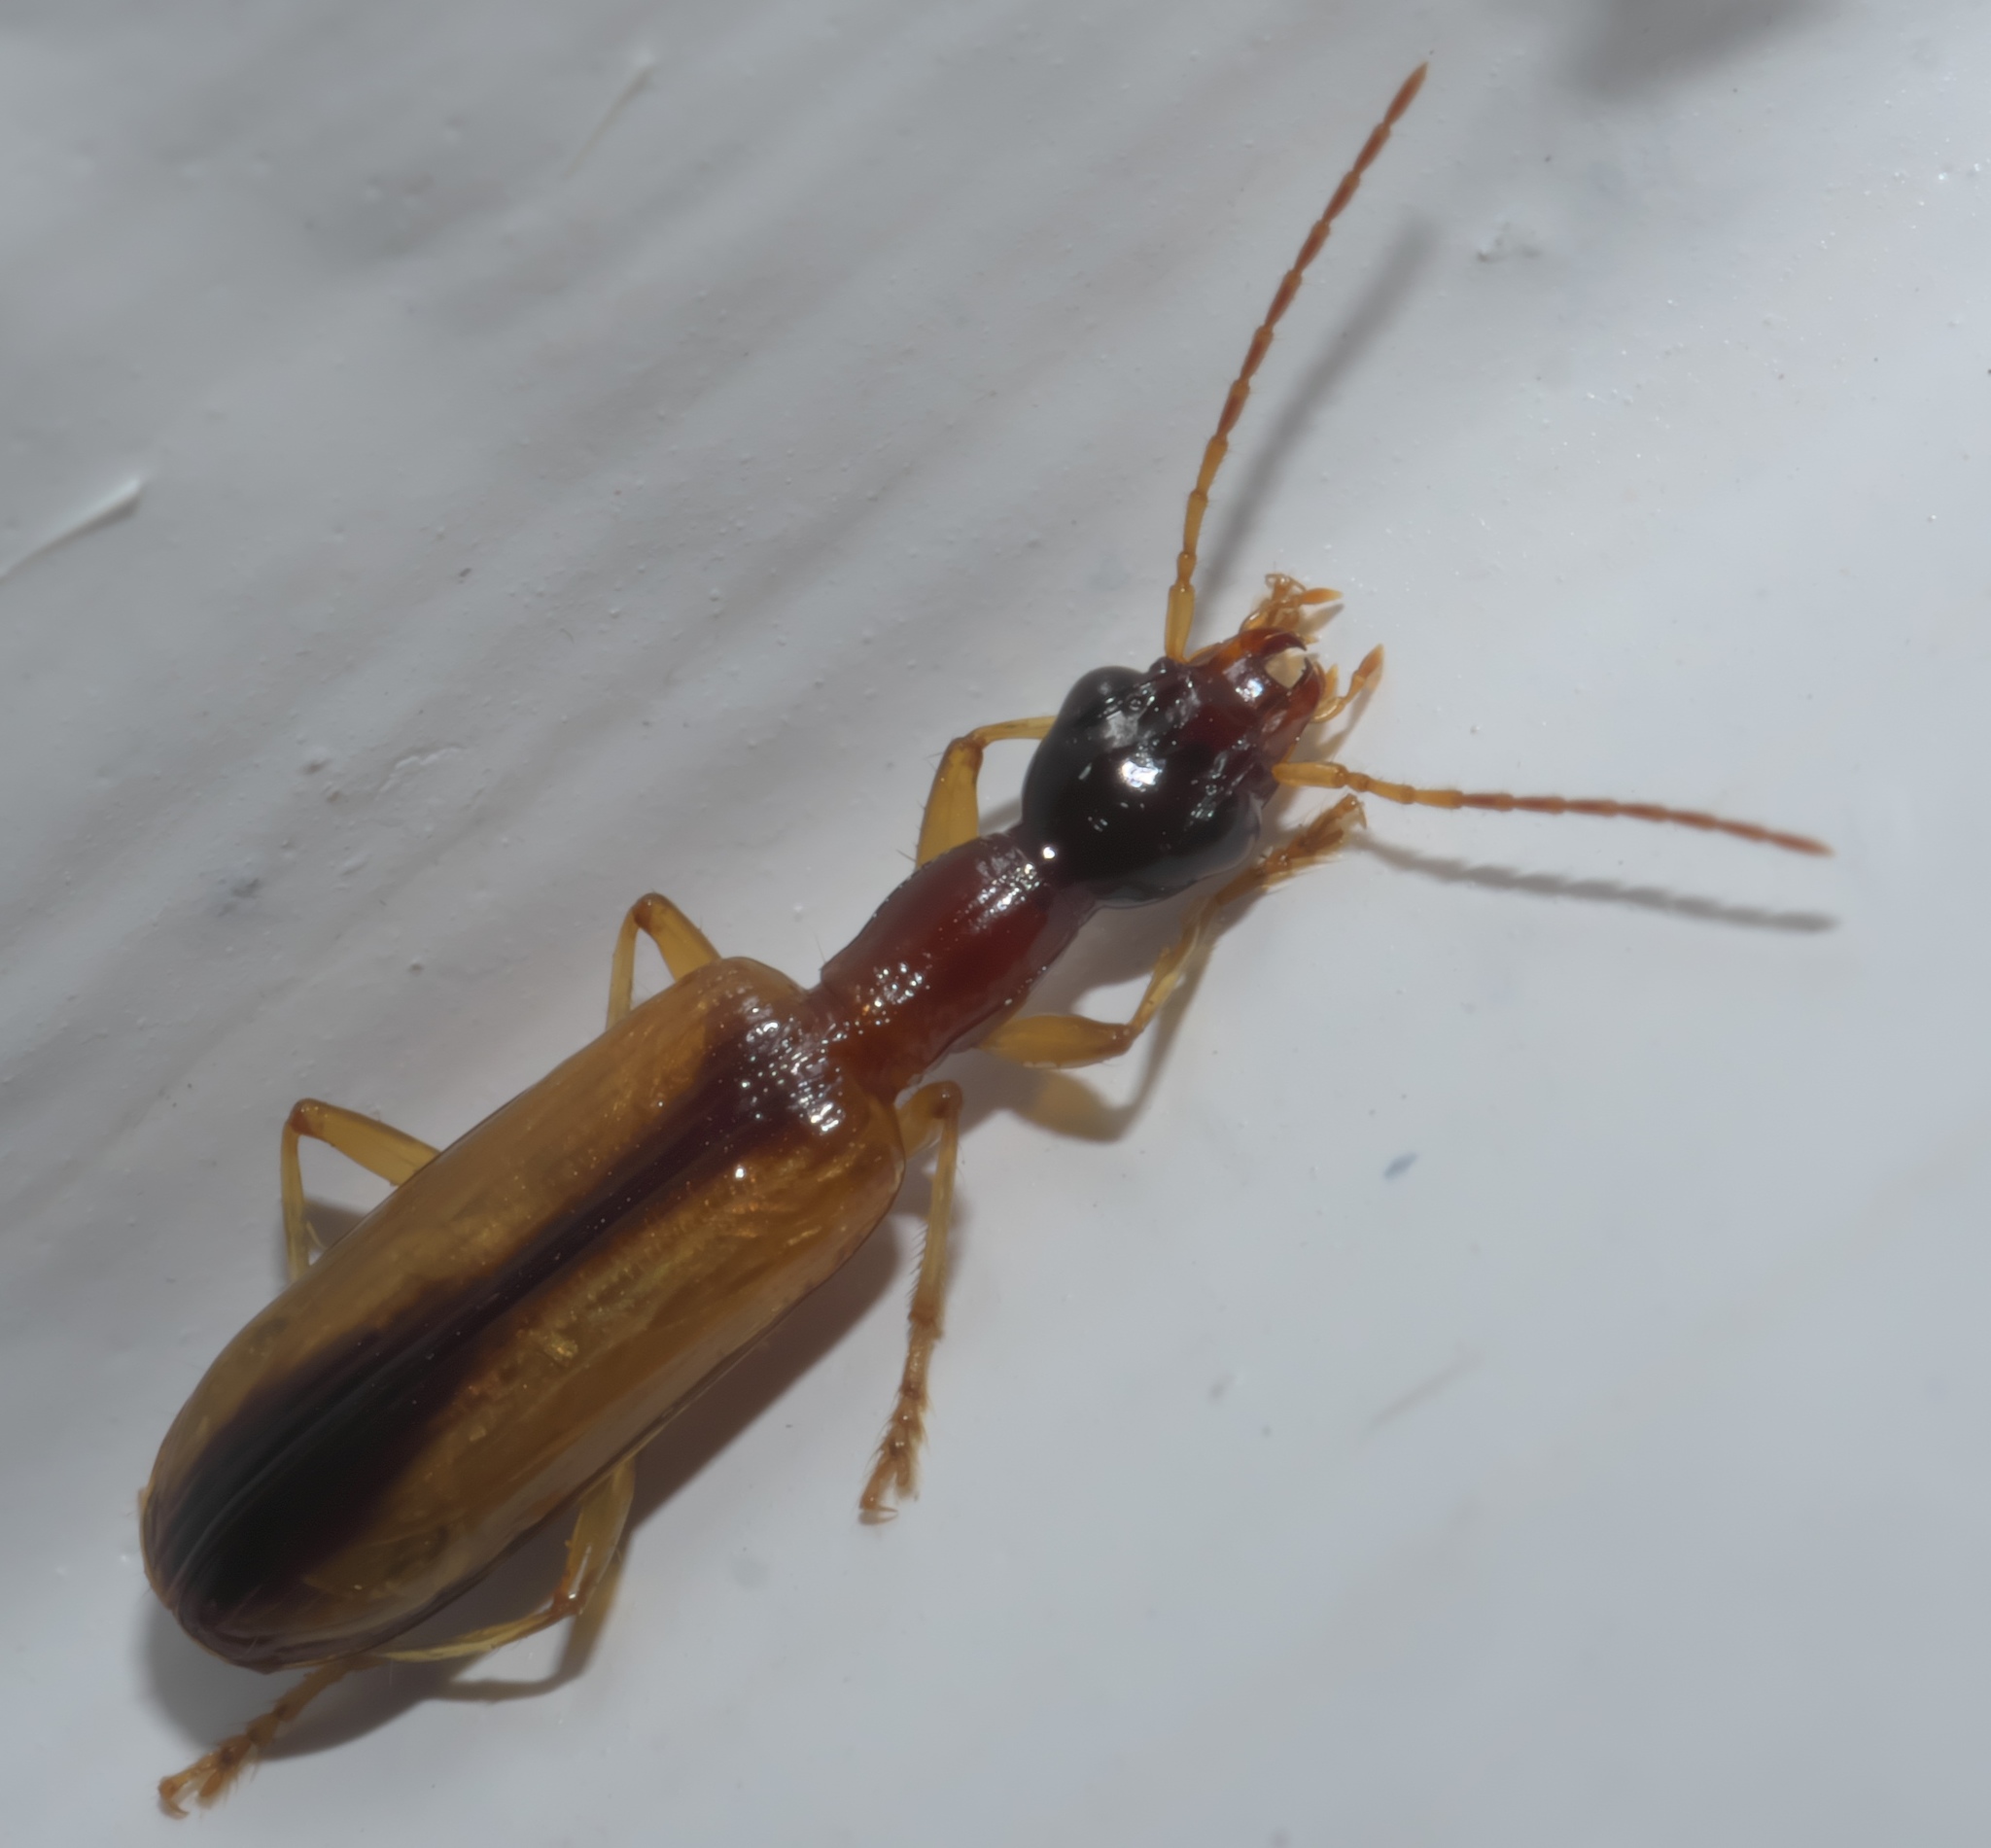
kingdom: Animalia
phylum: Arthropoda
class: Insecta
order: Coleoptera
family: Carabidae
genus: Leptotrachelus
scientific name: Leptotrachelus dorsalis
